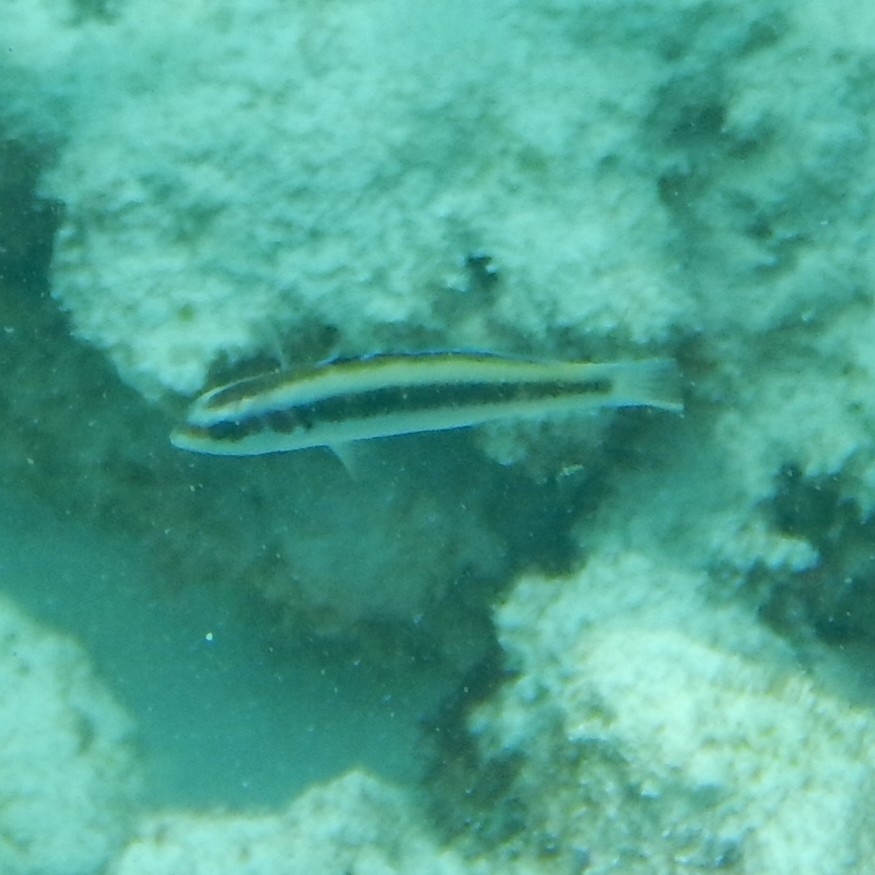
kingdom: Animalia
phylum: Chordata
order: Perciformes
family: Labridae
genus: Thalassoma
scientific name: Thalassoma bifasciatum
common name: Bluehead wrasse
